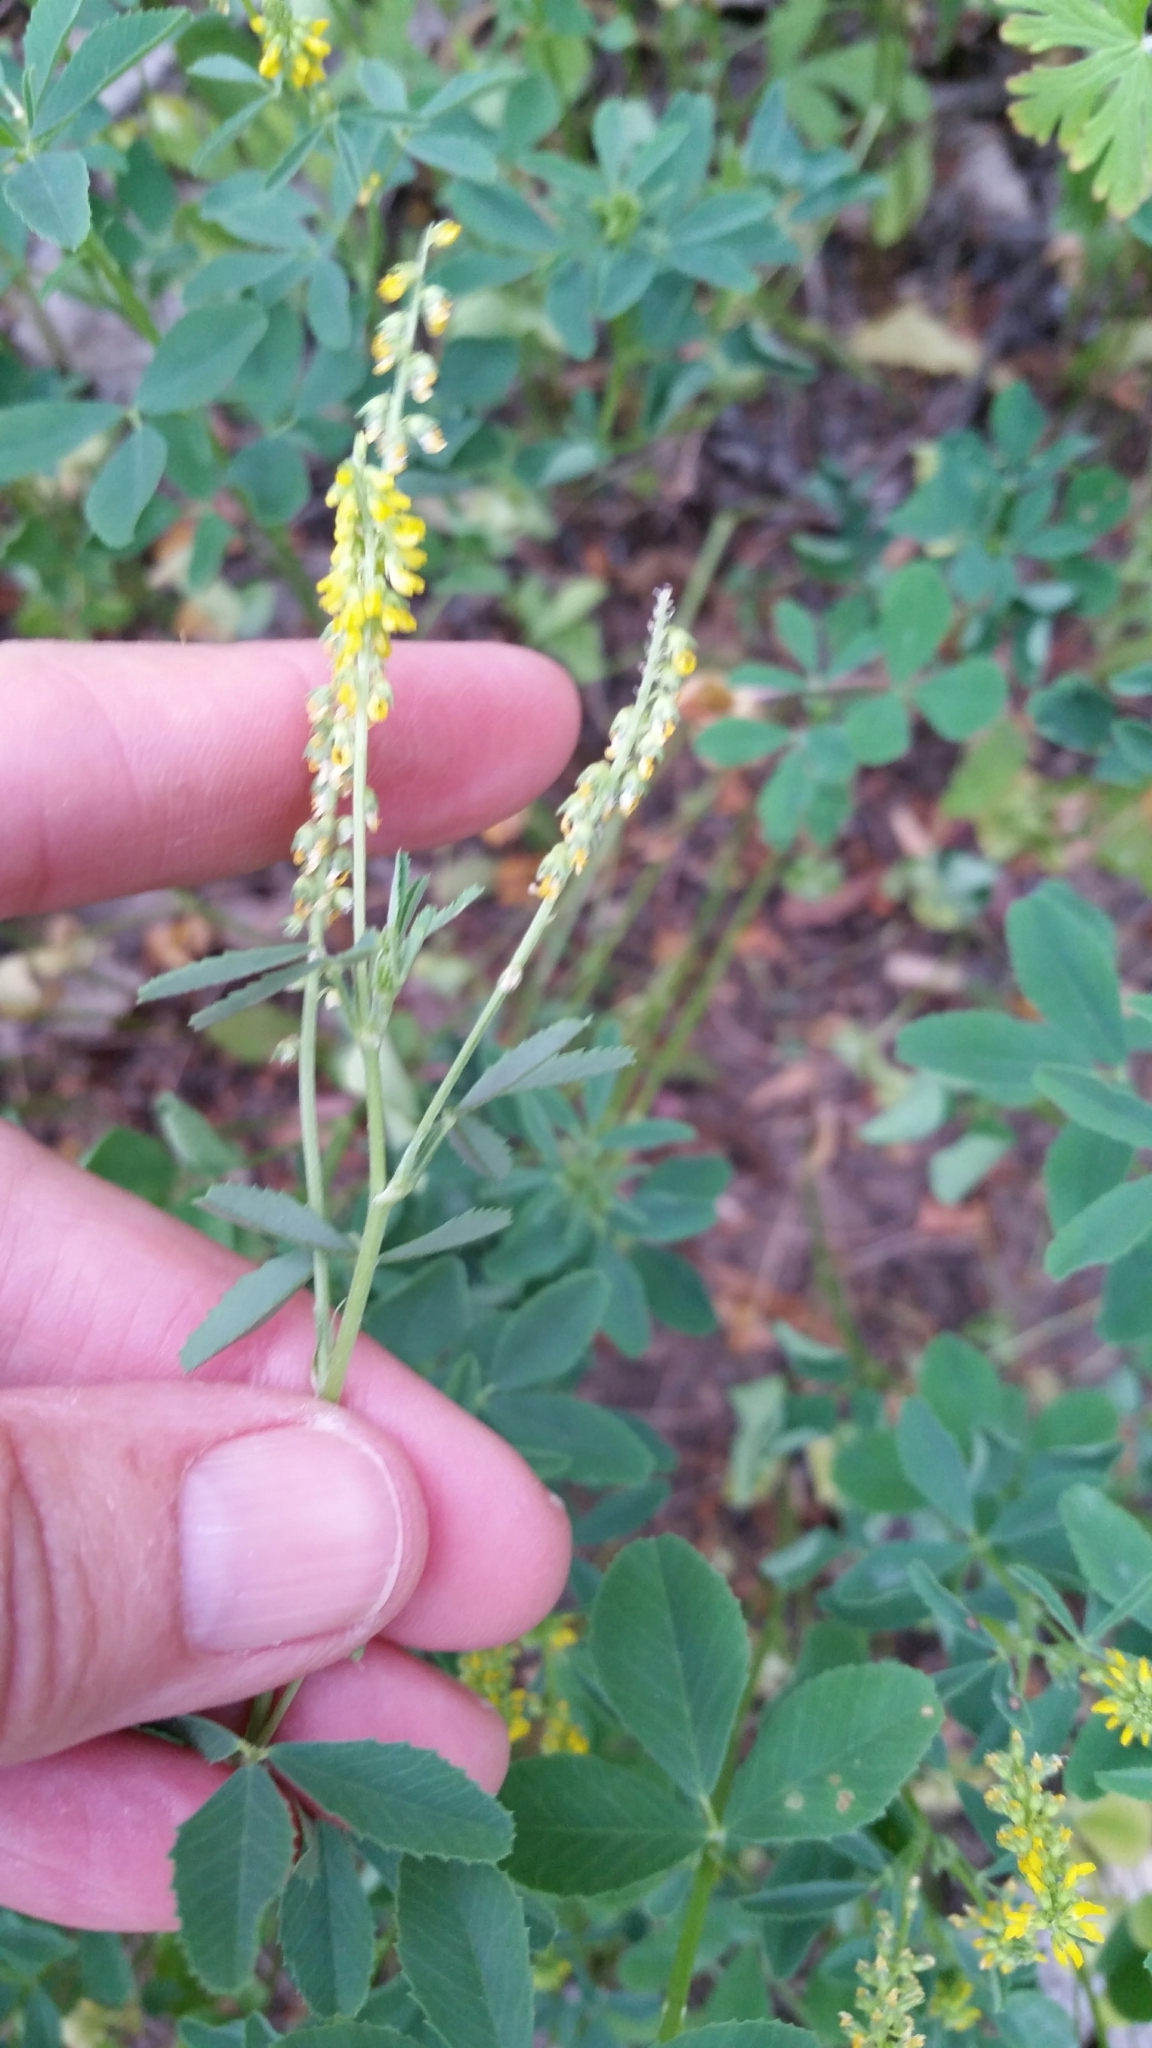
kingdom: Plantae
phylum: Tracheophyta
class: Magnoliopsida
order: Fabales
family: Fabaceae
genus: Melilotus
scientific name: Melilotus indicus
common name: Small melilot
